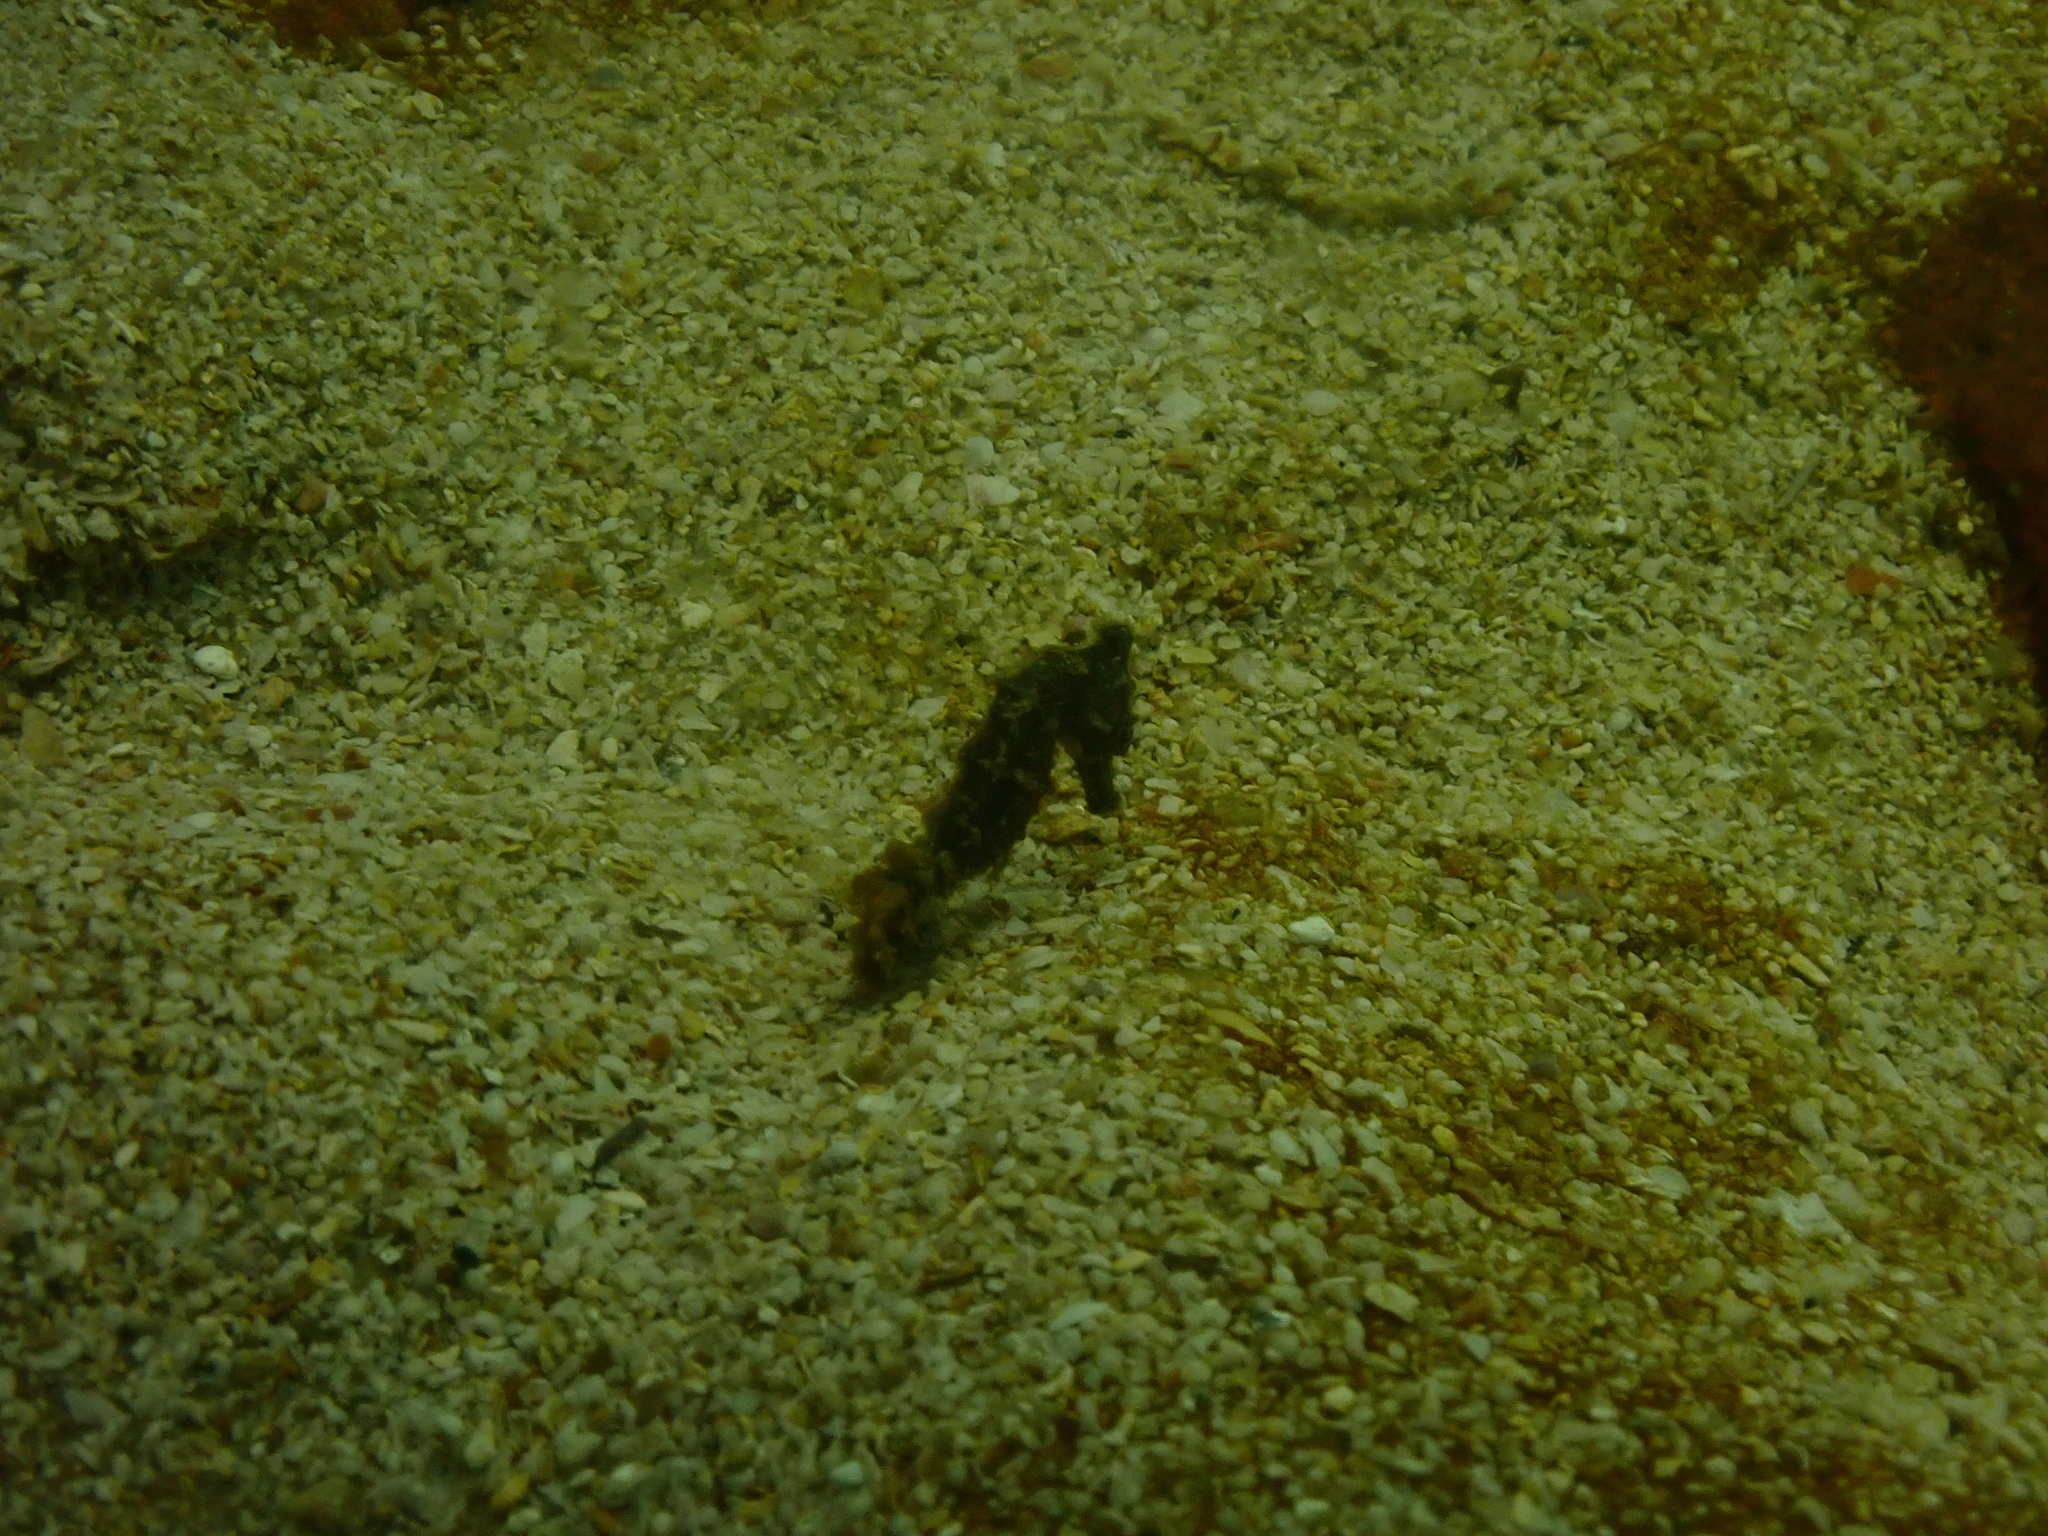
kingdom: Animalia
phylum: Chordata
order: Syngnathiformes
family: Syngnathidae
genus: Hippocampus
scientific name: Hippocampus kuda
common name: Spotted seahorse
